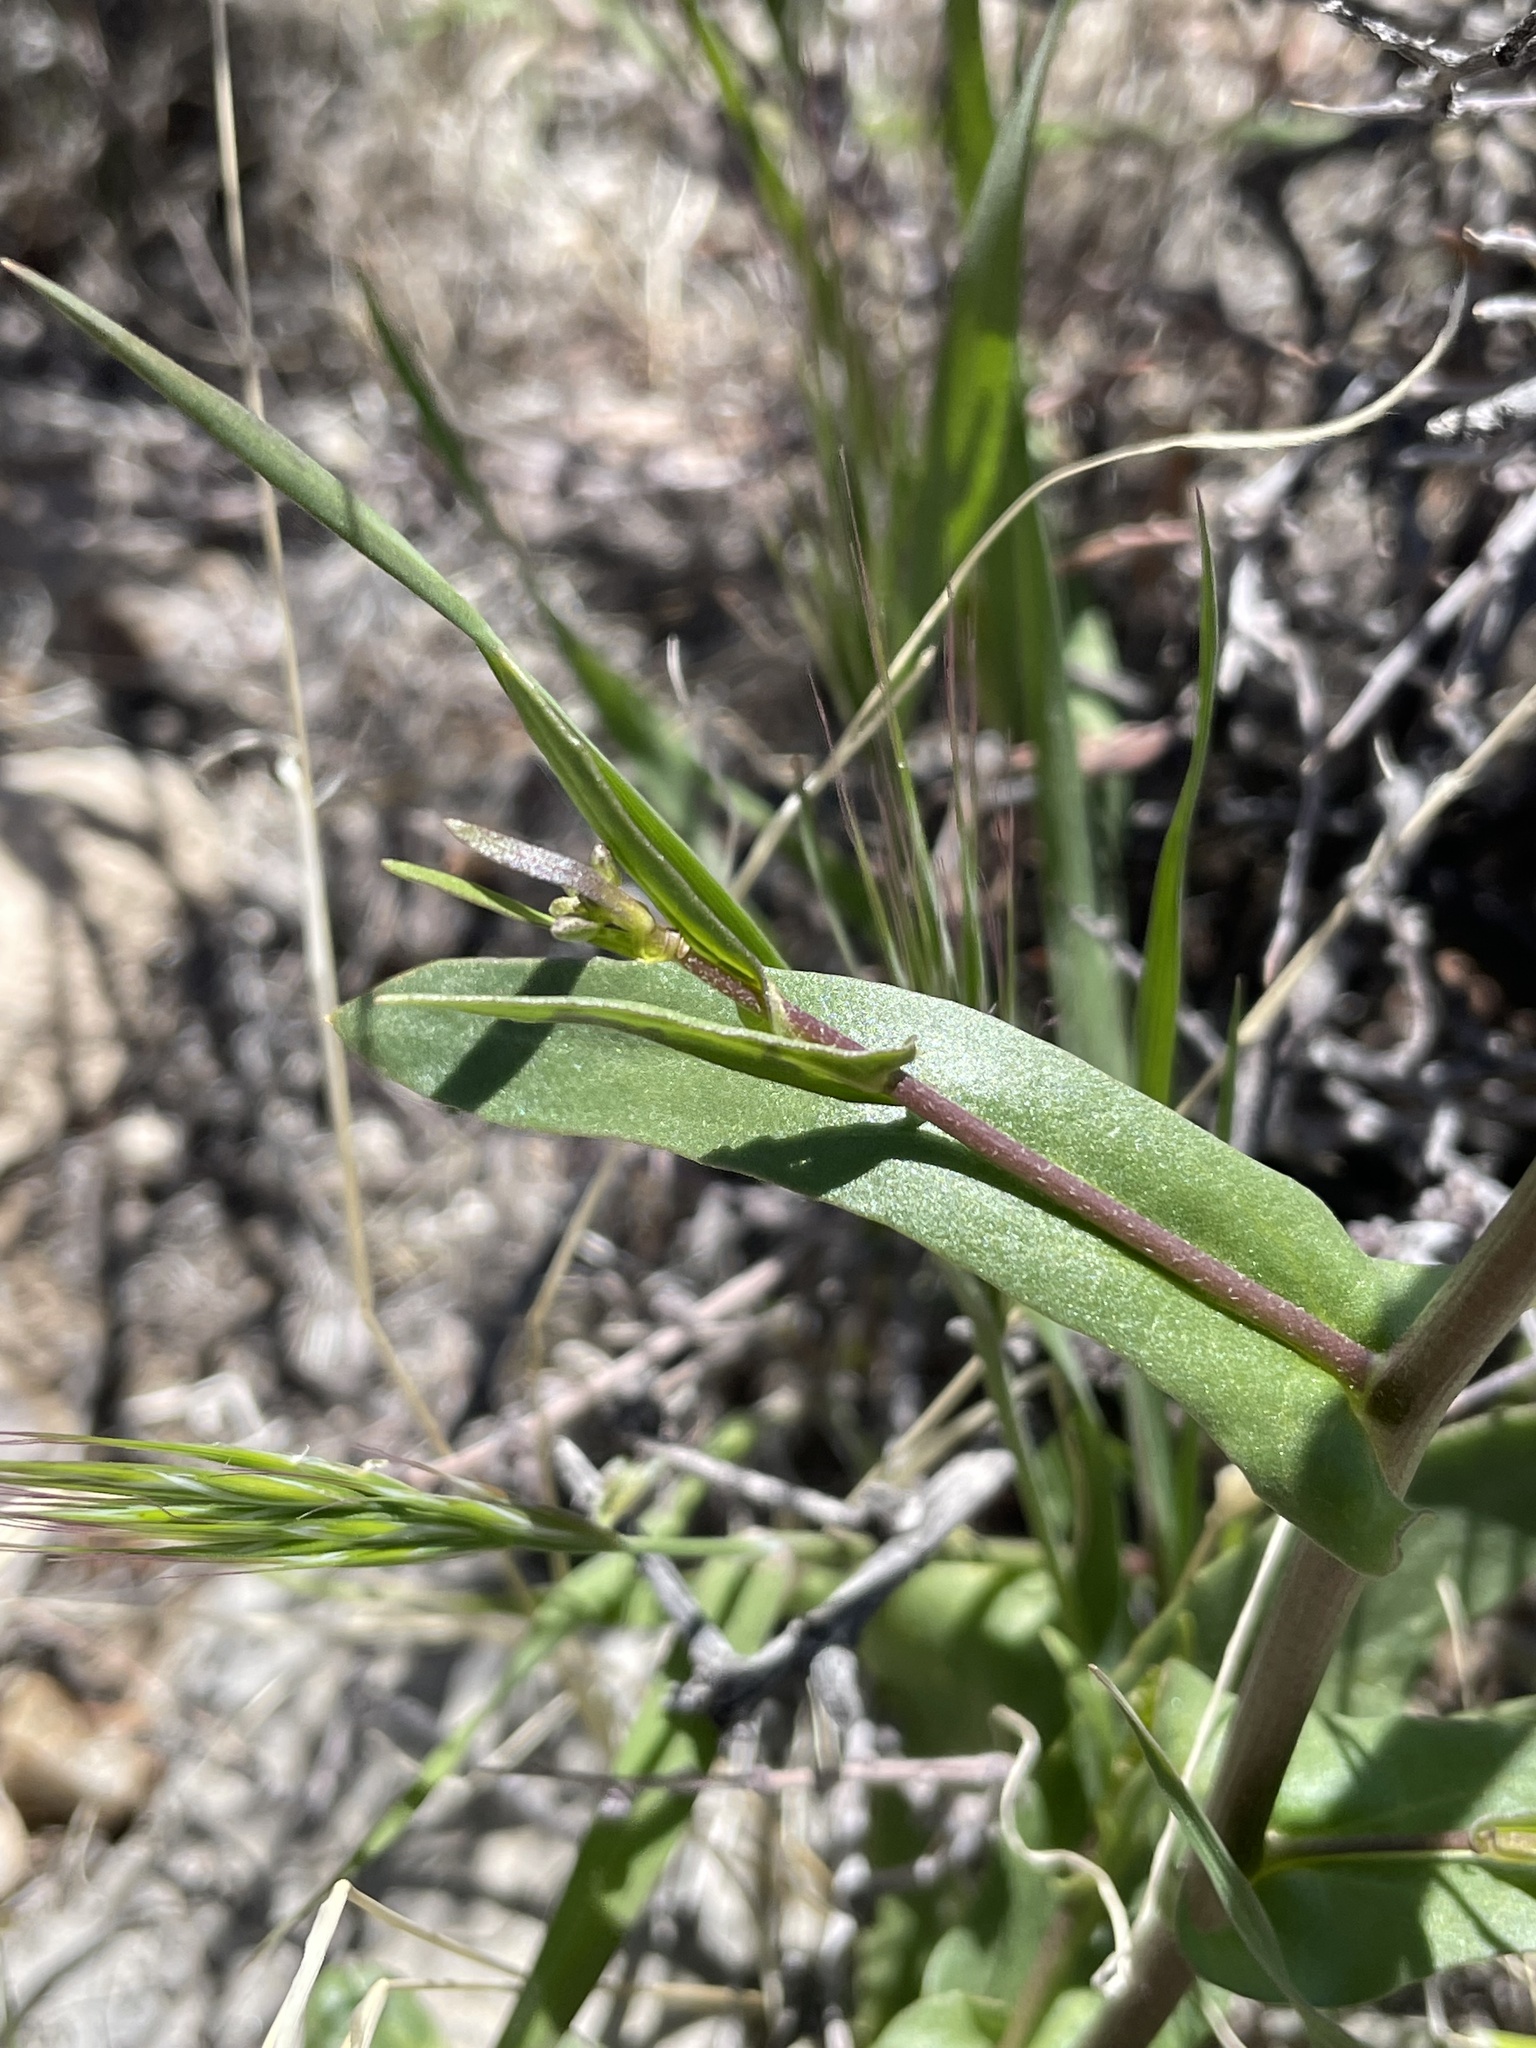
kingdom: Plantae
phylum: Tracheophyta
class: Magnoliopsida
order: Brassicales
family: Brassicaceae
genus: Streptanthus
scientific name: Streptanthus cooperi
